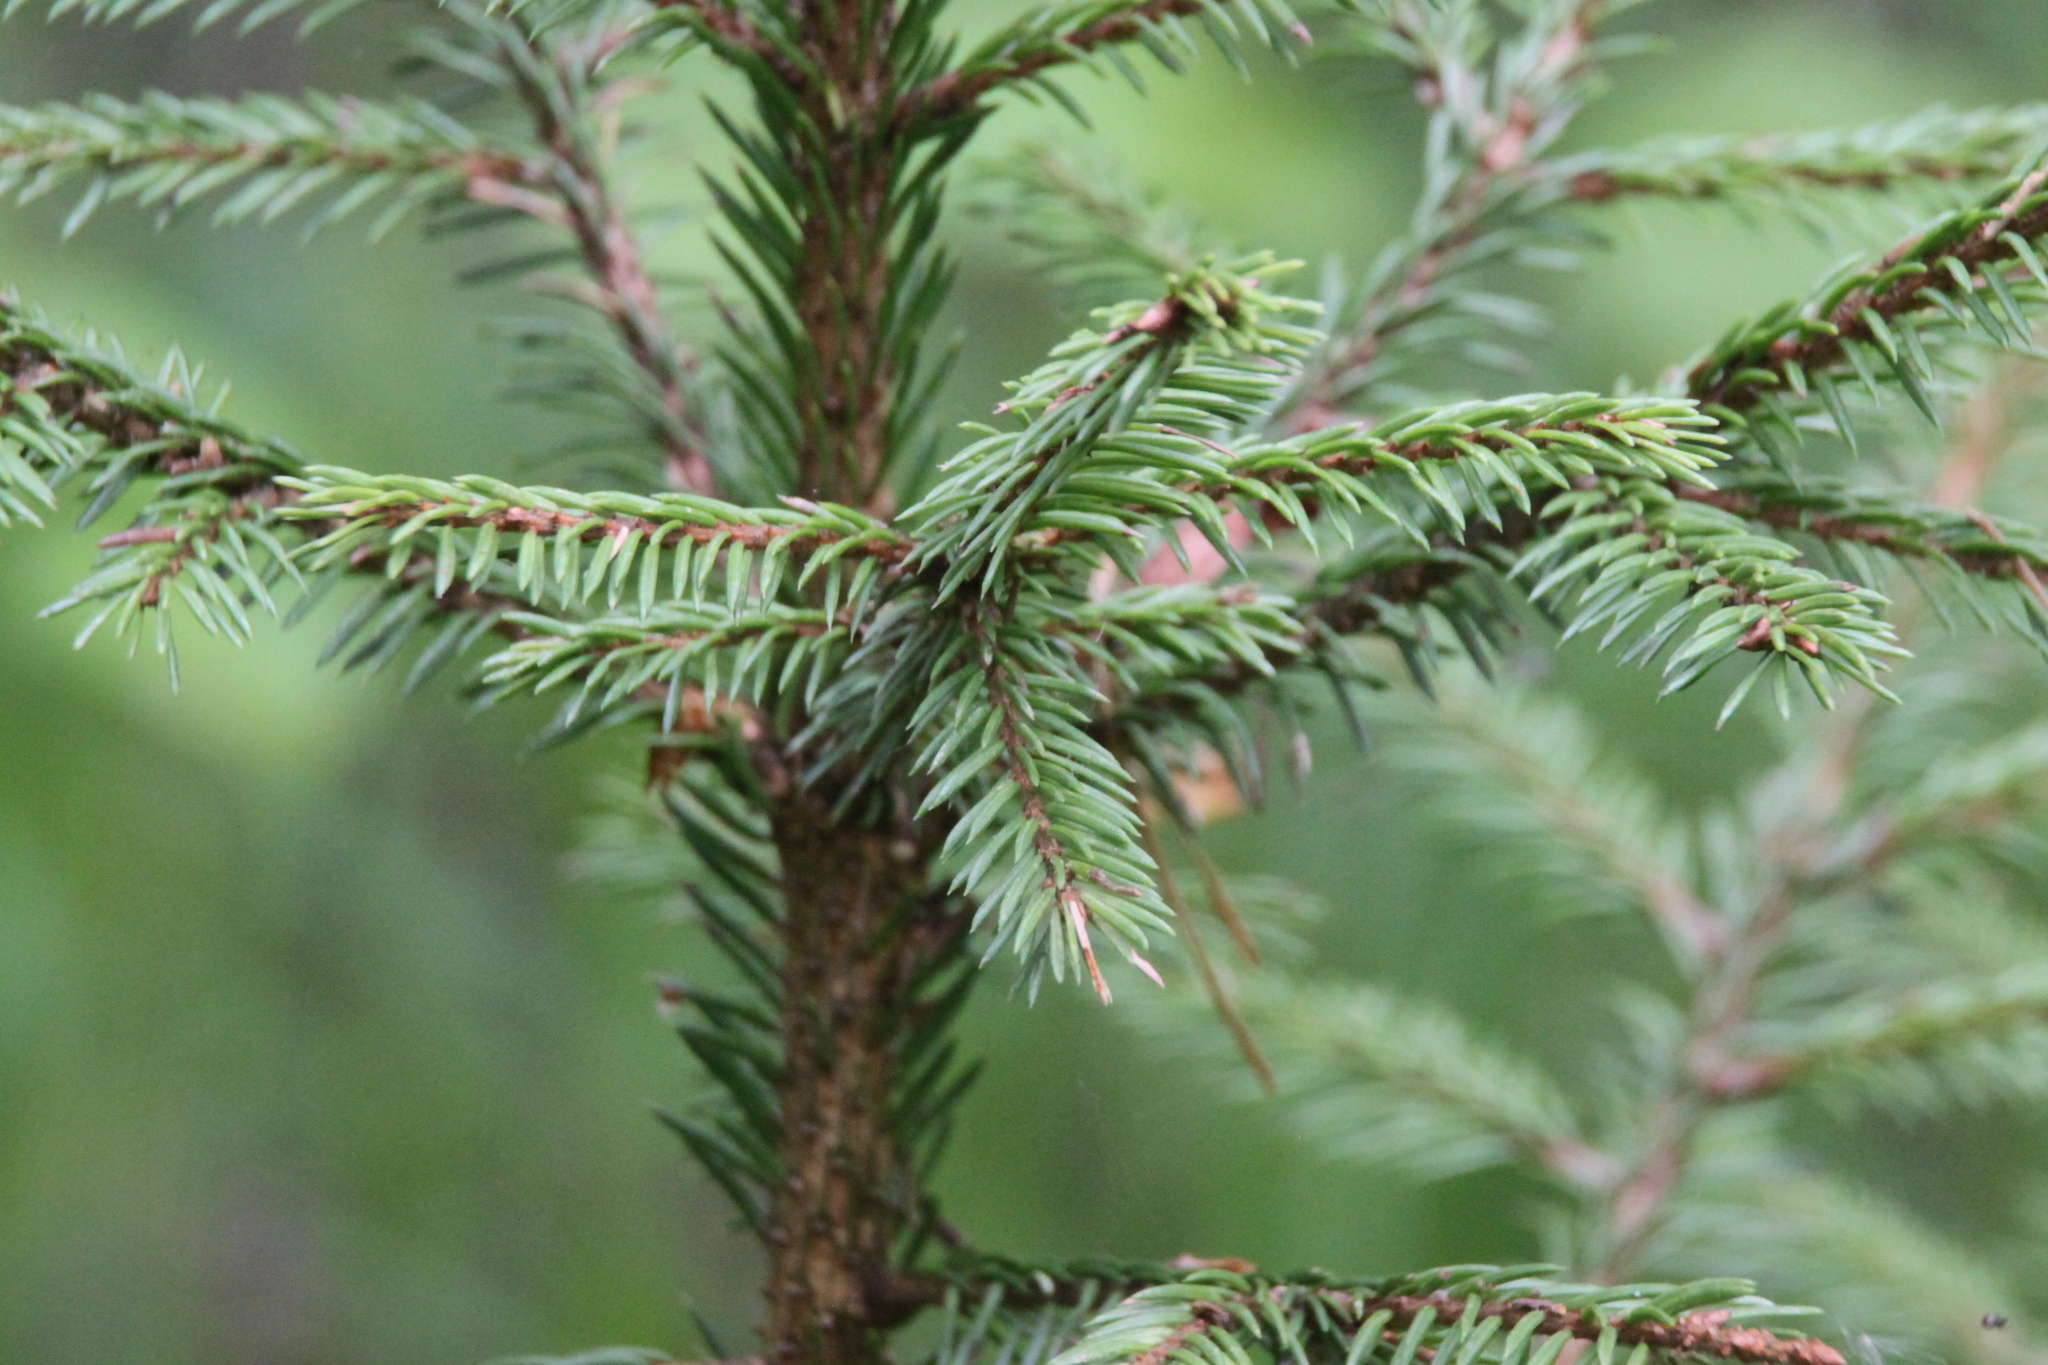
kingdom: Plantae
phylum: Tracheophyta
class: Pinopsida
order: Pinales
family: Pinaceae
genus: Picea
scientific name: Picea abies
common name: Norway spruce
